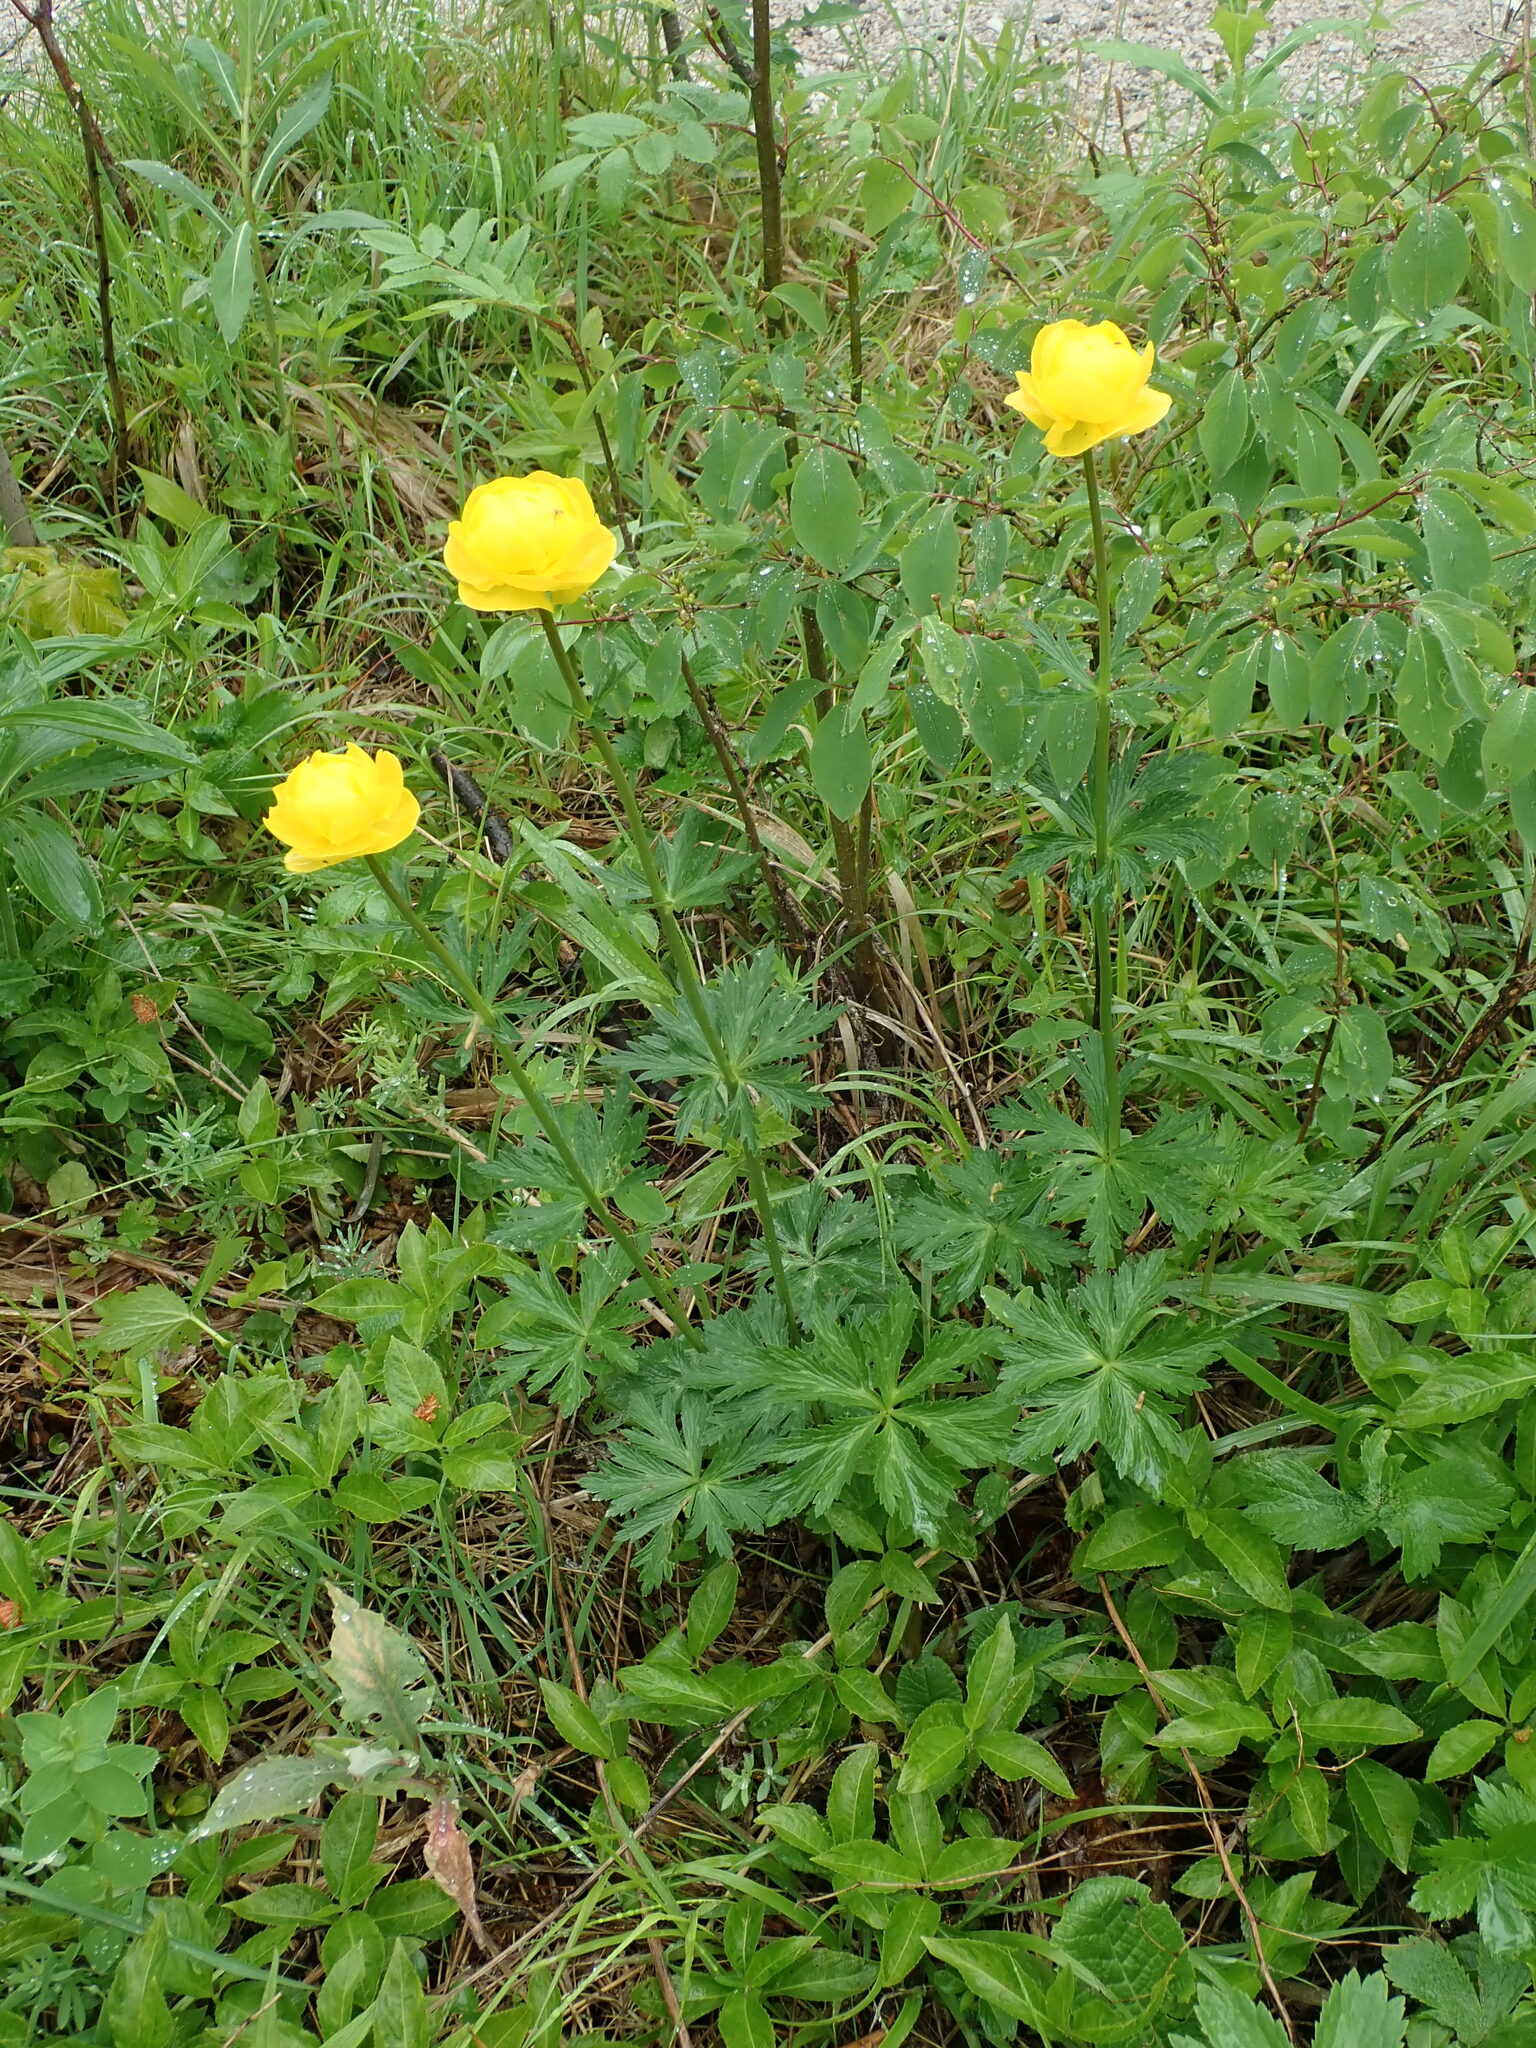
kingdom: Plantae
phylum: Tracheophyta
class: Magnoliopsida
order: Ranunculales
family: Ranunculaceae
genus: Trollius
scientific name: Trollius europaeus
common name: European globeflower
